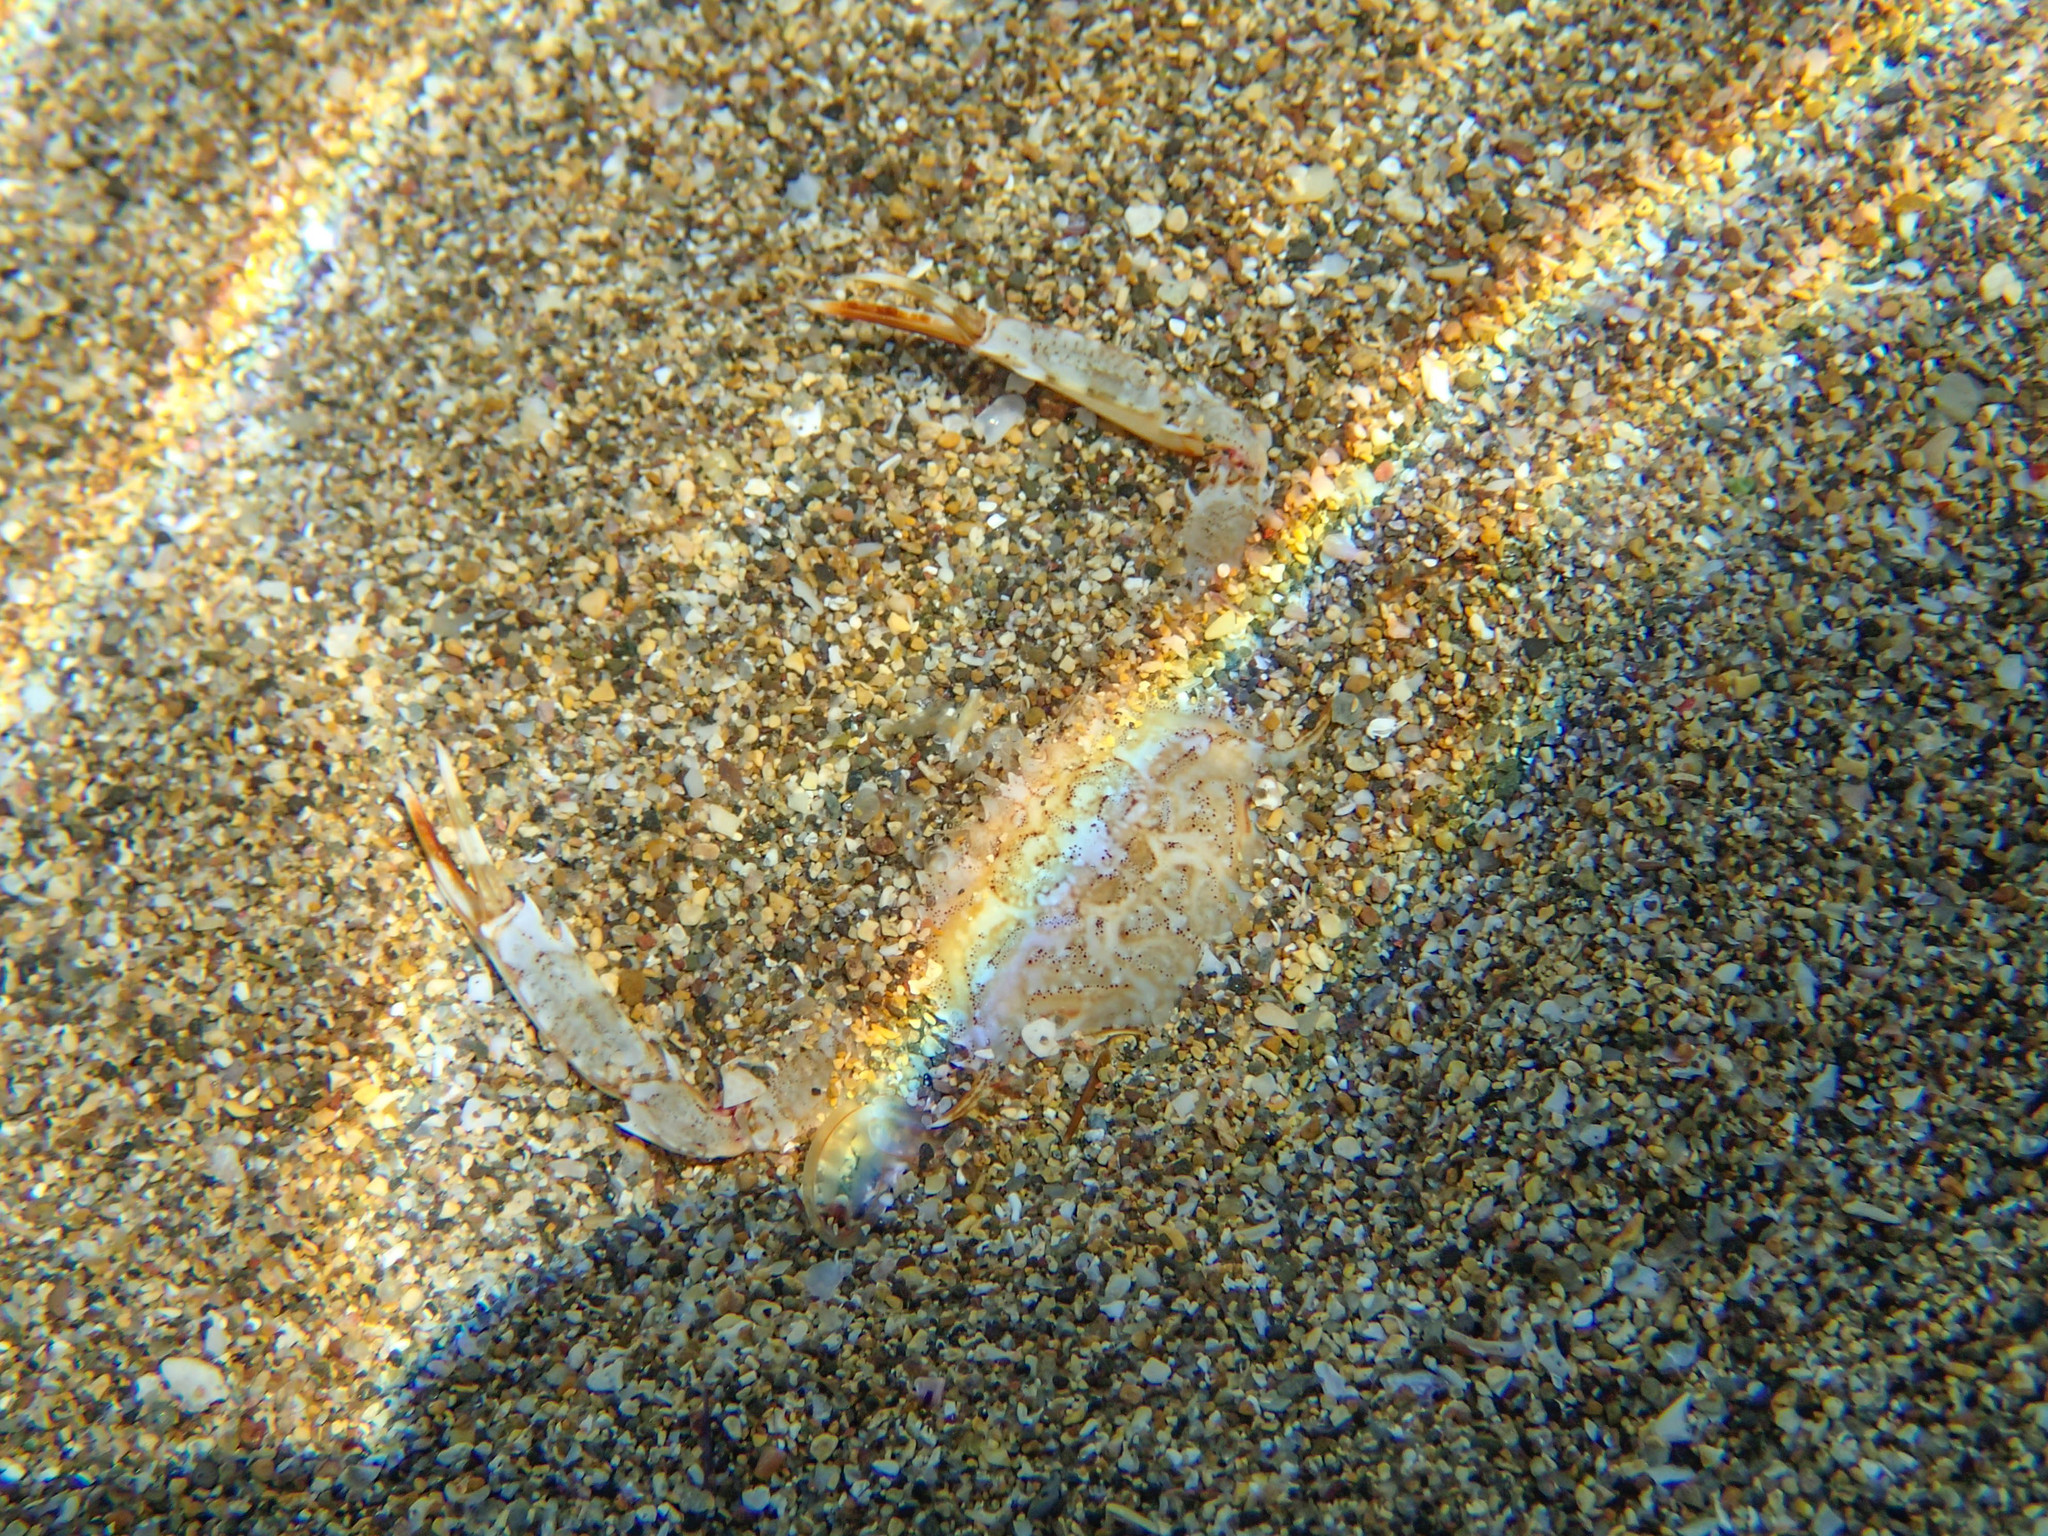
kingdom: Animalia
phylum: Arthropoda
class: Malacostraca
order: Decapoda
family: Portunidae
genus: Achelous
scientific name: Achelous hastatus
